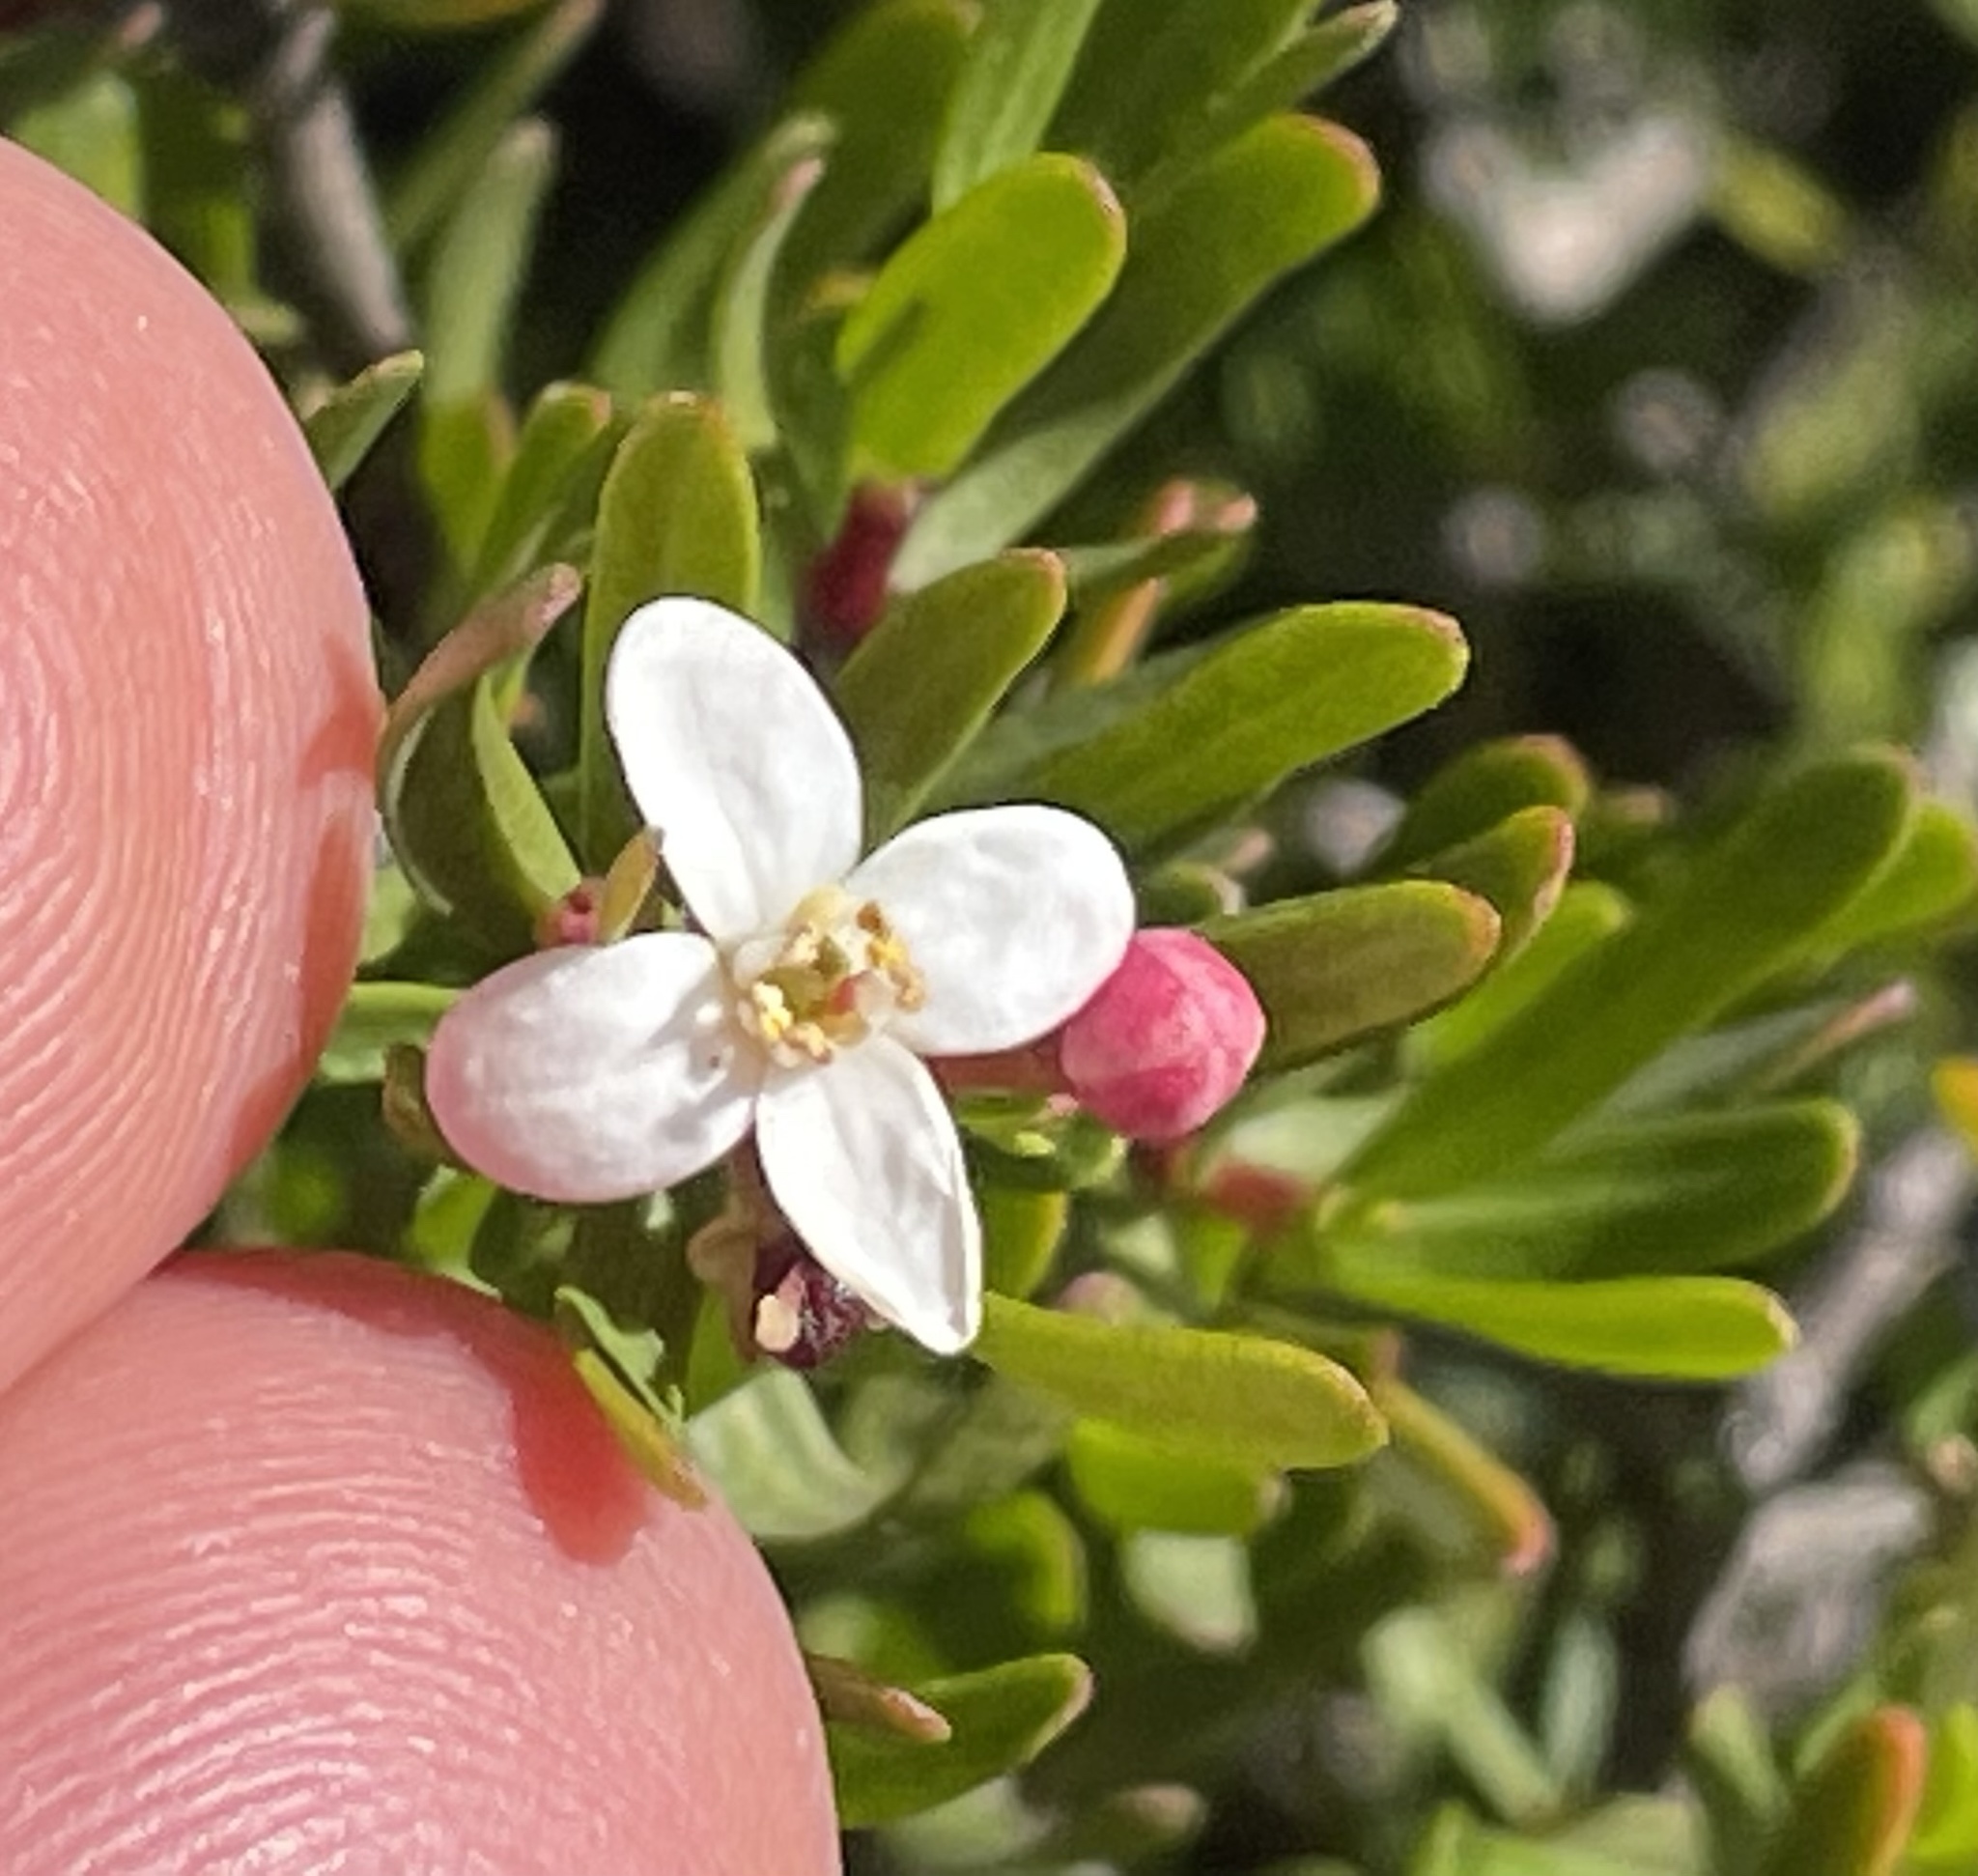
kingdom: Plantae
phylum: Tracheophyta
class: Magnoliopsida
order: Sapindales
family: Rutaceae
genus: Cneoridium
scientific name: Cneoridium dumosum
